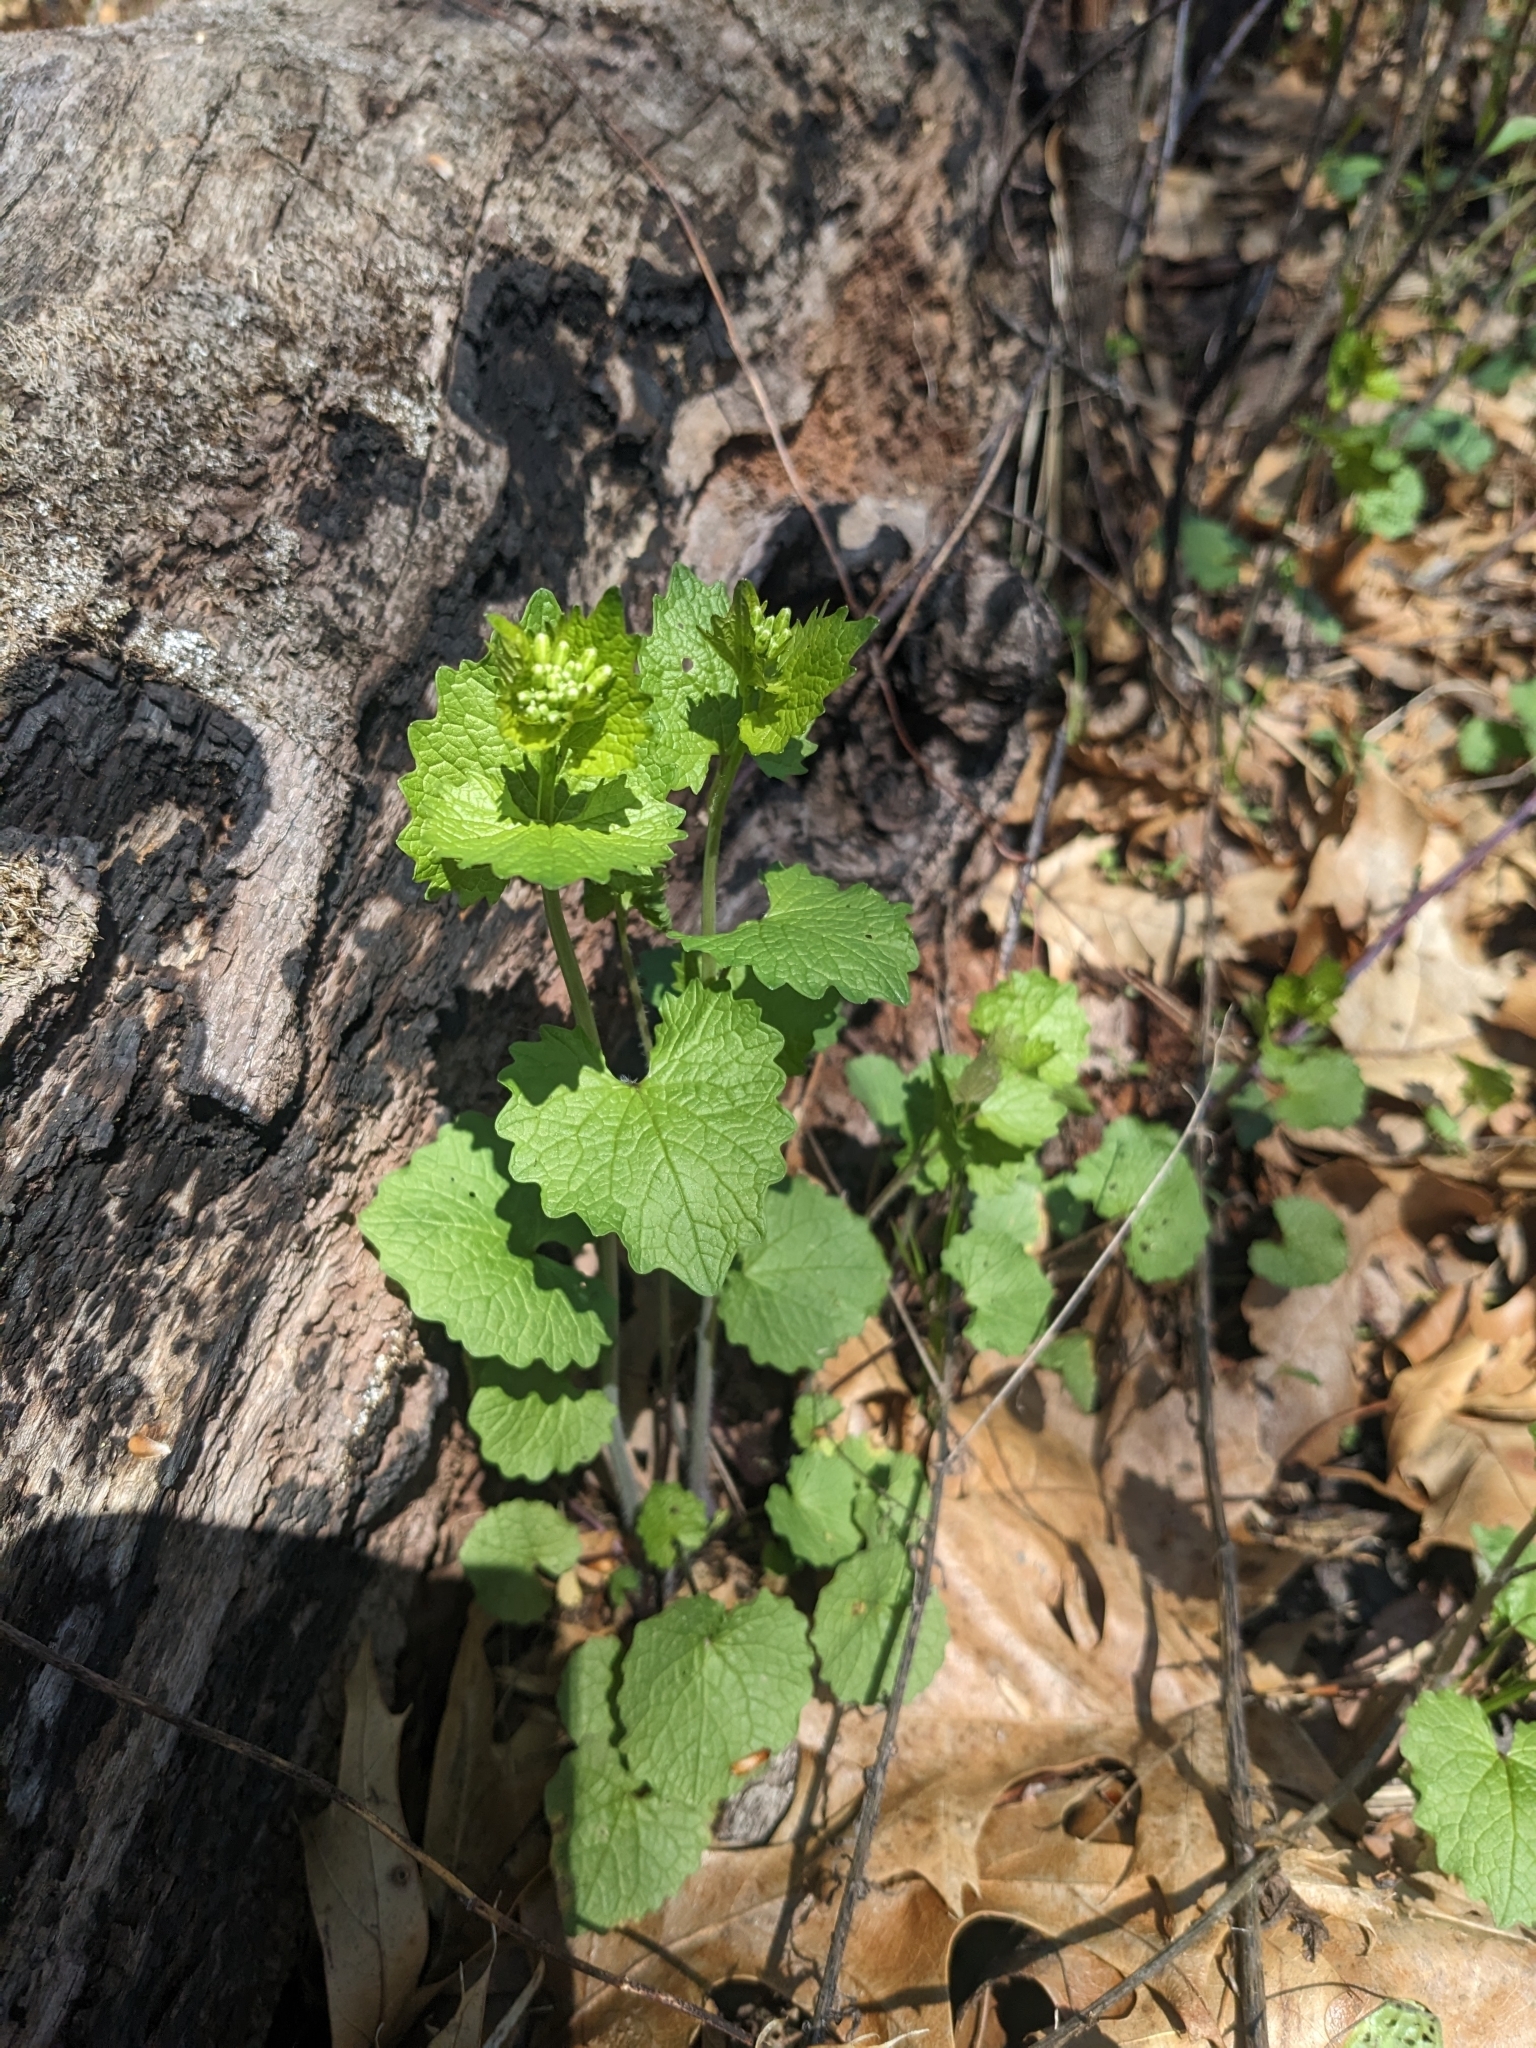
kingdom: Plantae
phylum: Tracheophyta
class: Magnoliopsida
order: Brassicales
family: Brassicaceae
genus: Alliaria
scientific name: Alliaria petiolata
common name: Garlic mustard
